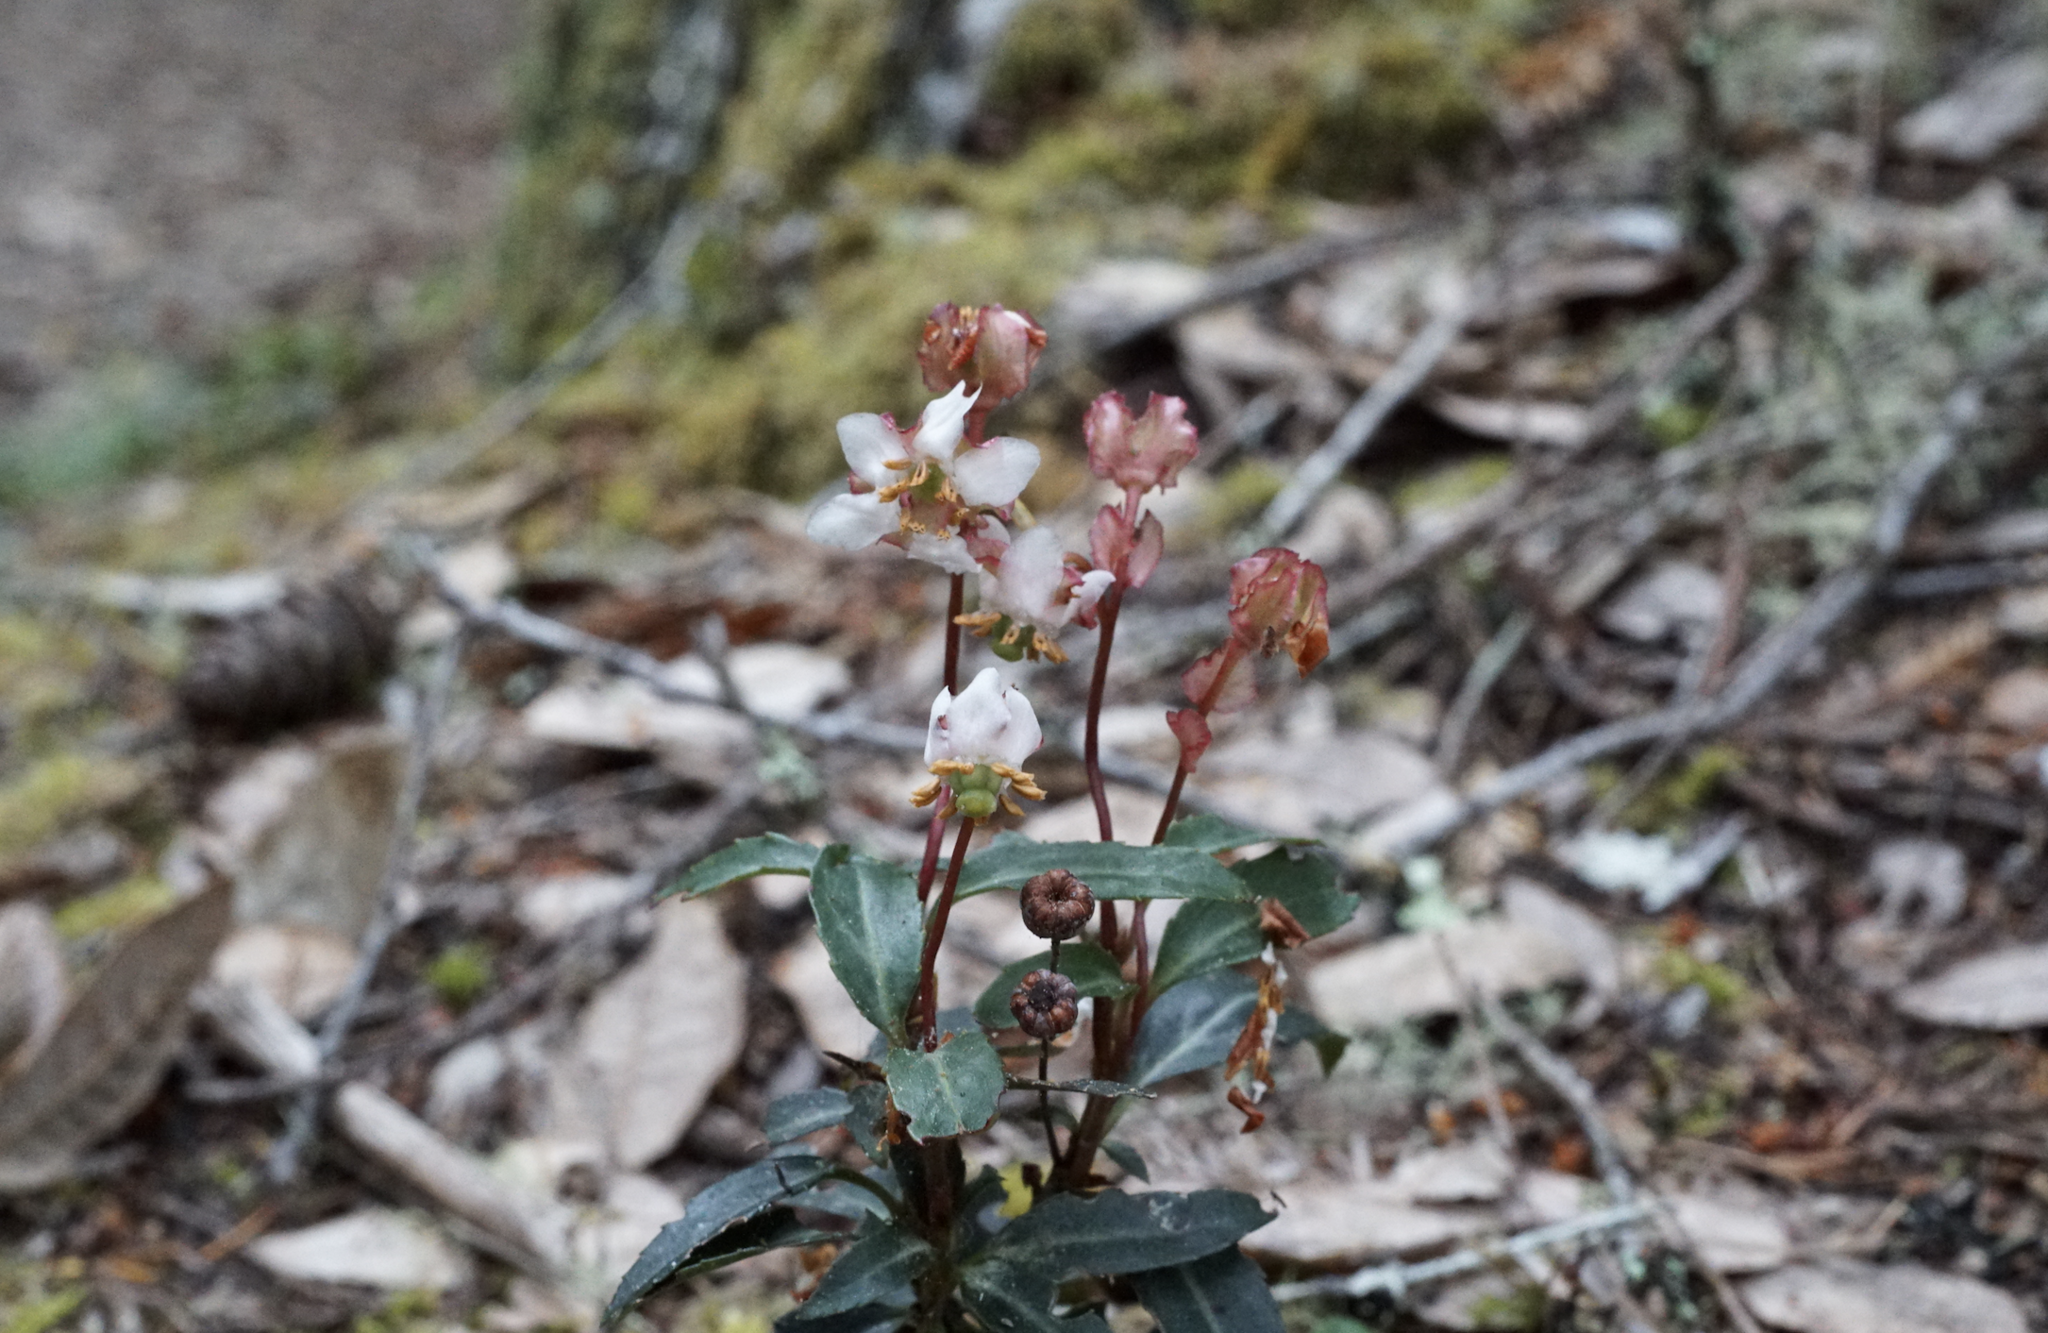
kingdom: Plantae
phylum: Tracheophyta
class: Magnoliopsida
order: Ericales
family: Ericaceae
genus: Chimaphila
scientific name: Chimaphila menziesii
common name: Menzies' pipsissewa
